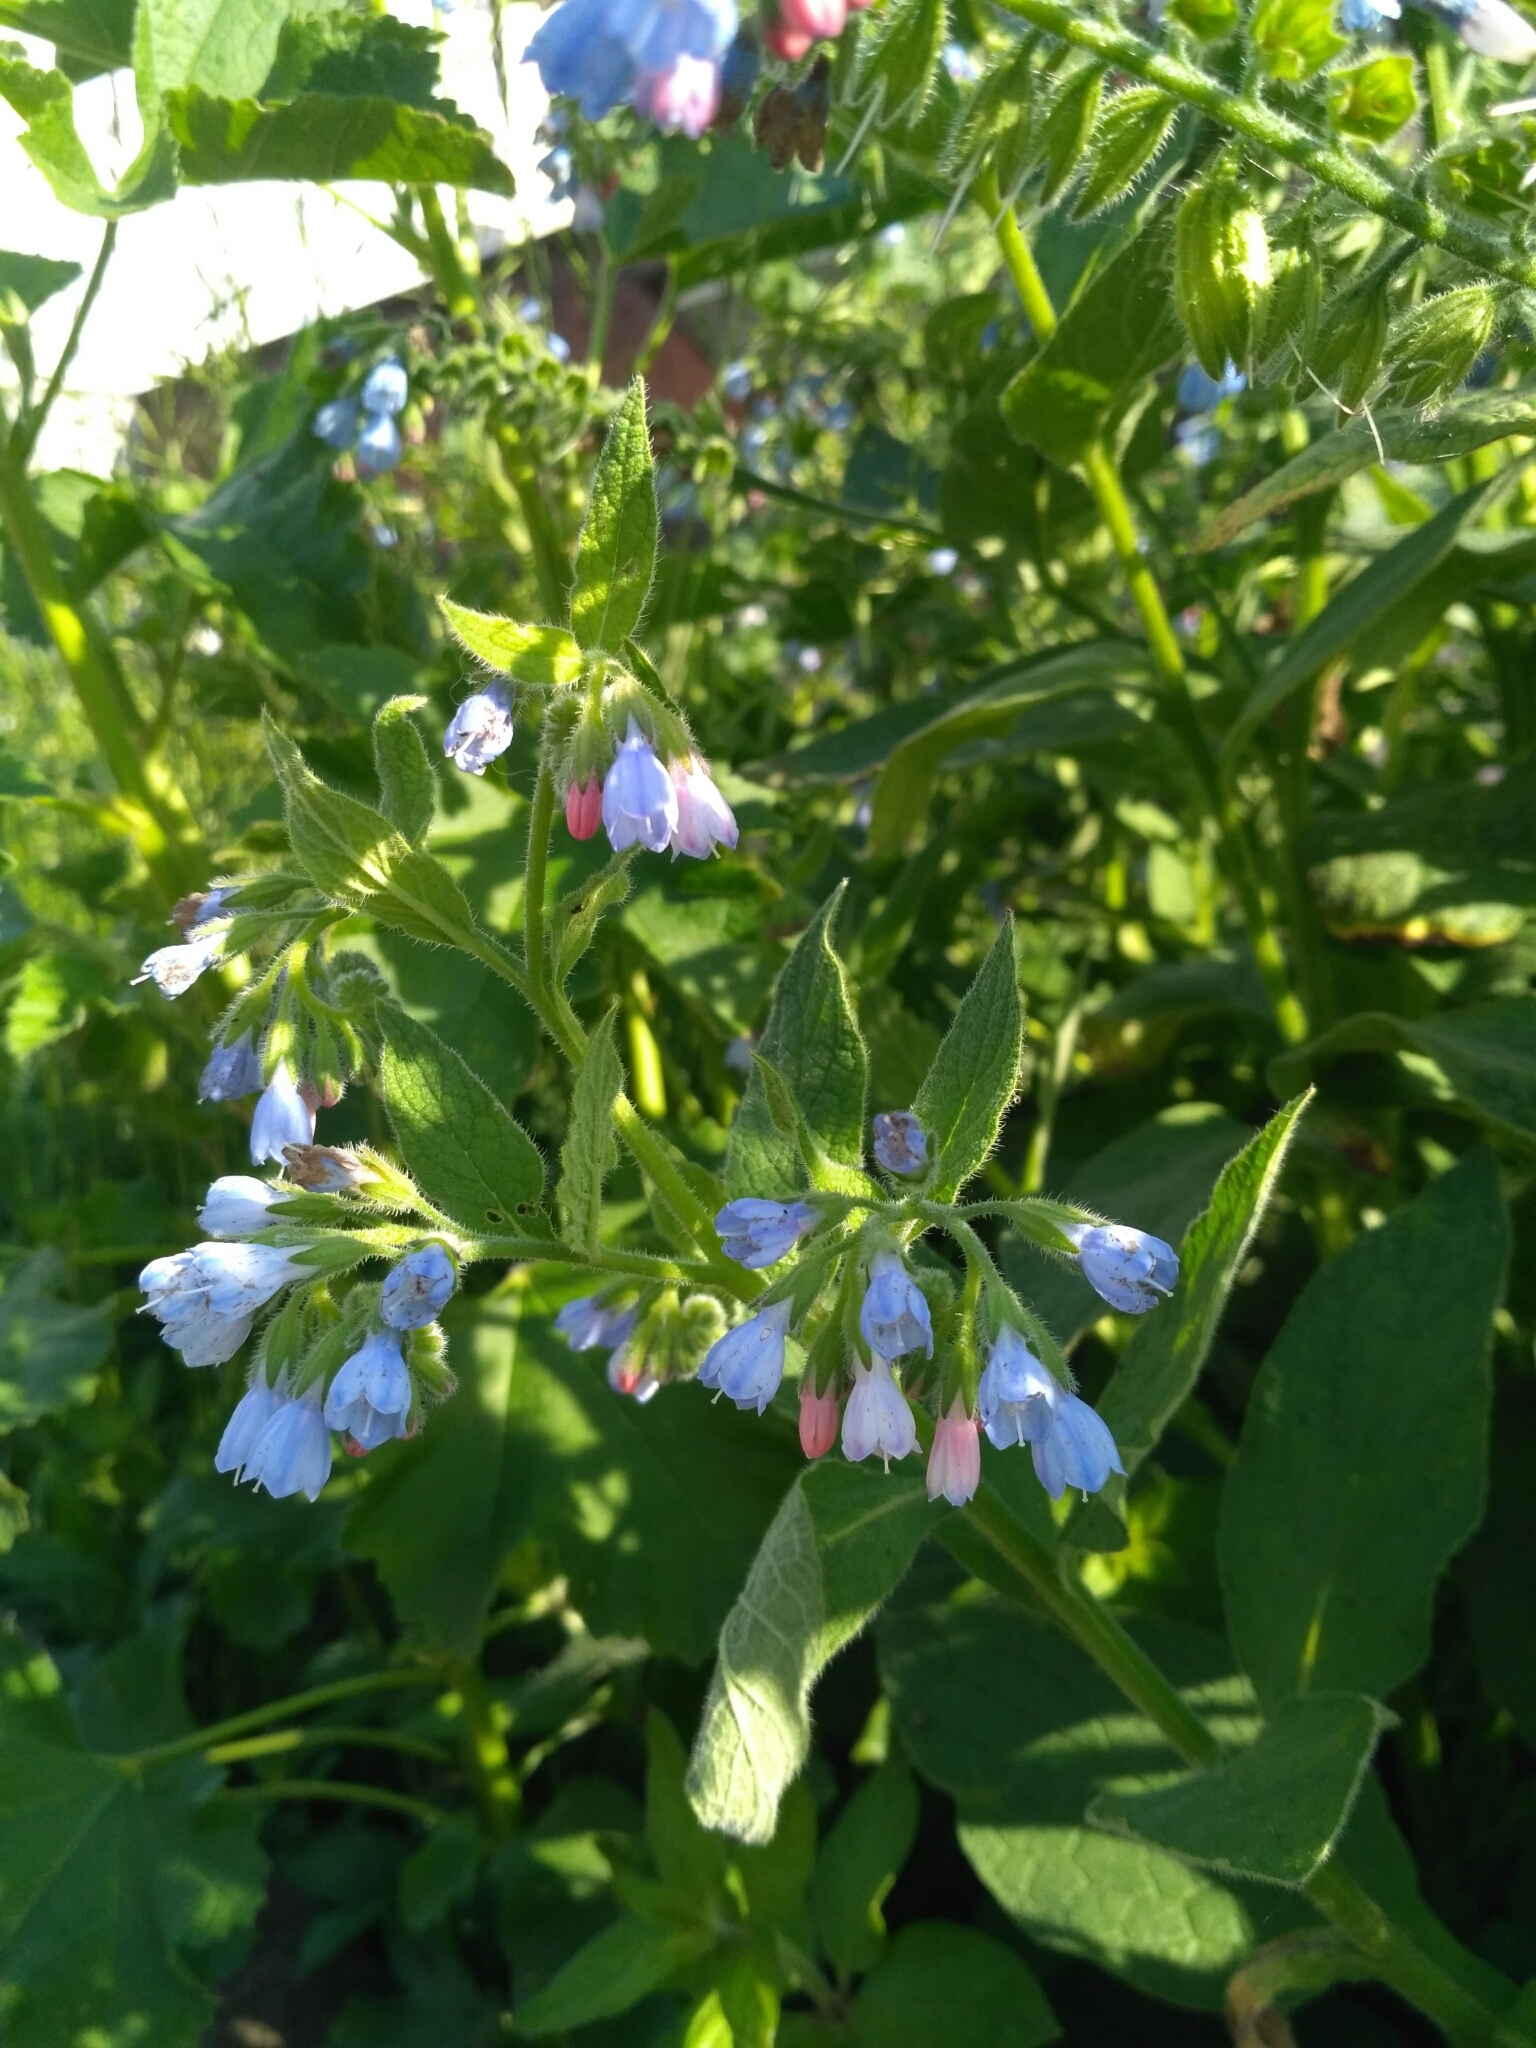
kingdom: Plantae
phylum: Tracheophyta
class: Magnoliopsida
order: Boraginales
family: Boraginaceae
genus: Symphytum
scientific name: Symphytum caucasicum
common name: Caucasian comfrey
